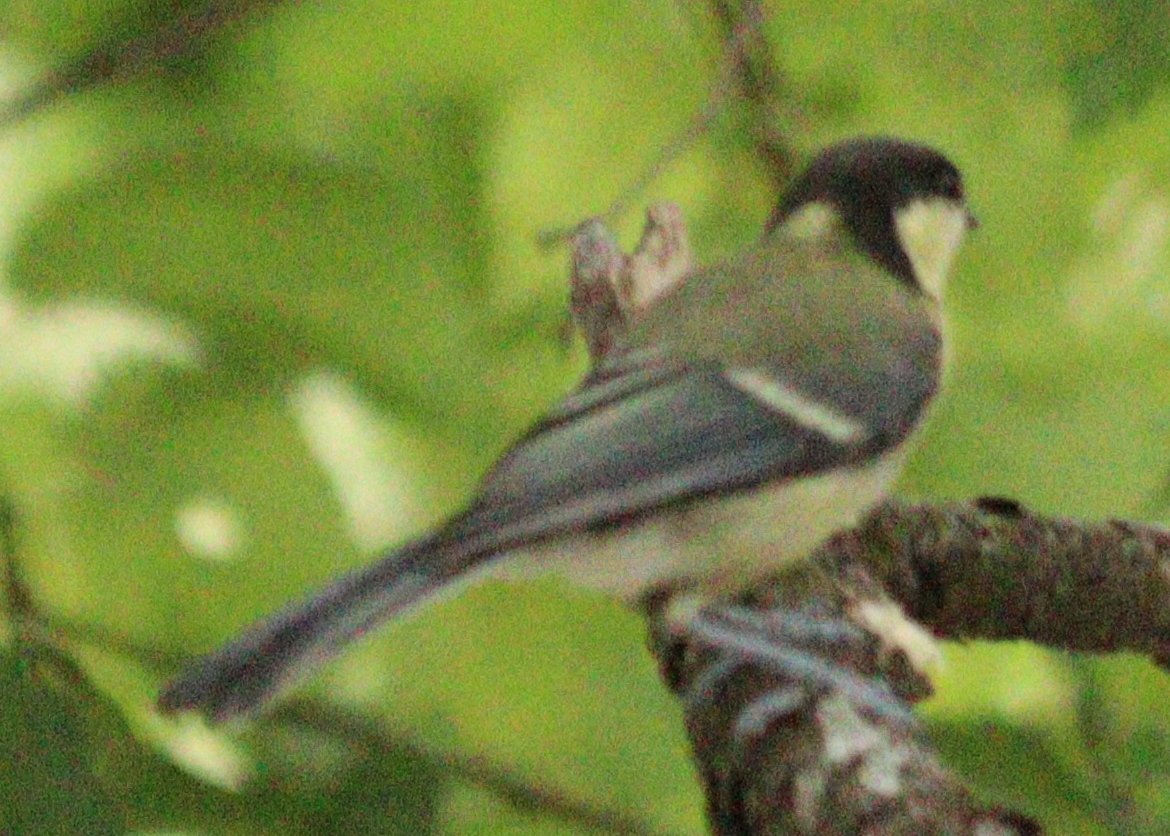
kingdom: Animalia
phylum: Chordata
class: Aves
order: Passeriformes
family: Paridae
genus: Parus
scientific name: Parus major
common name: Great tit
